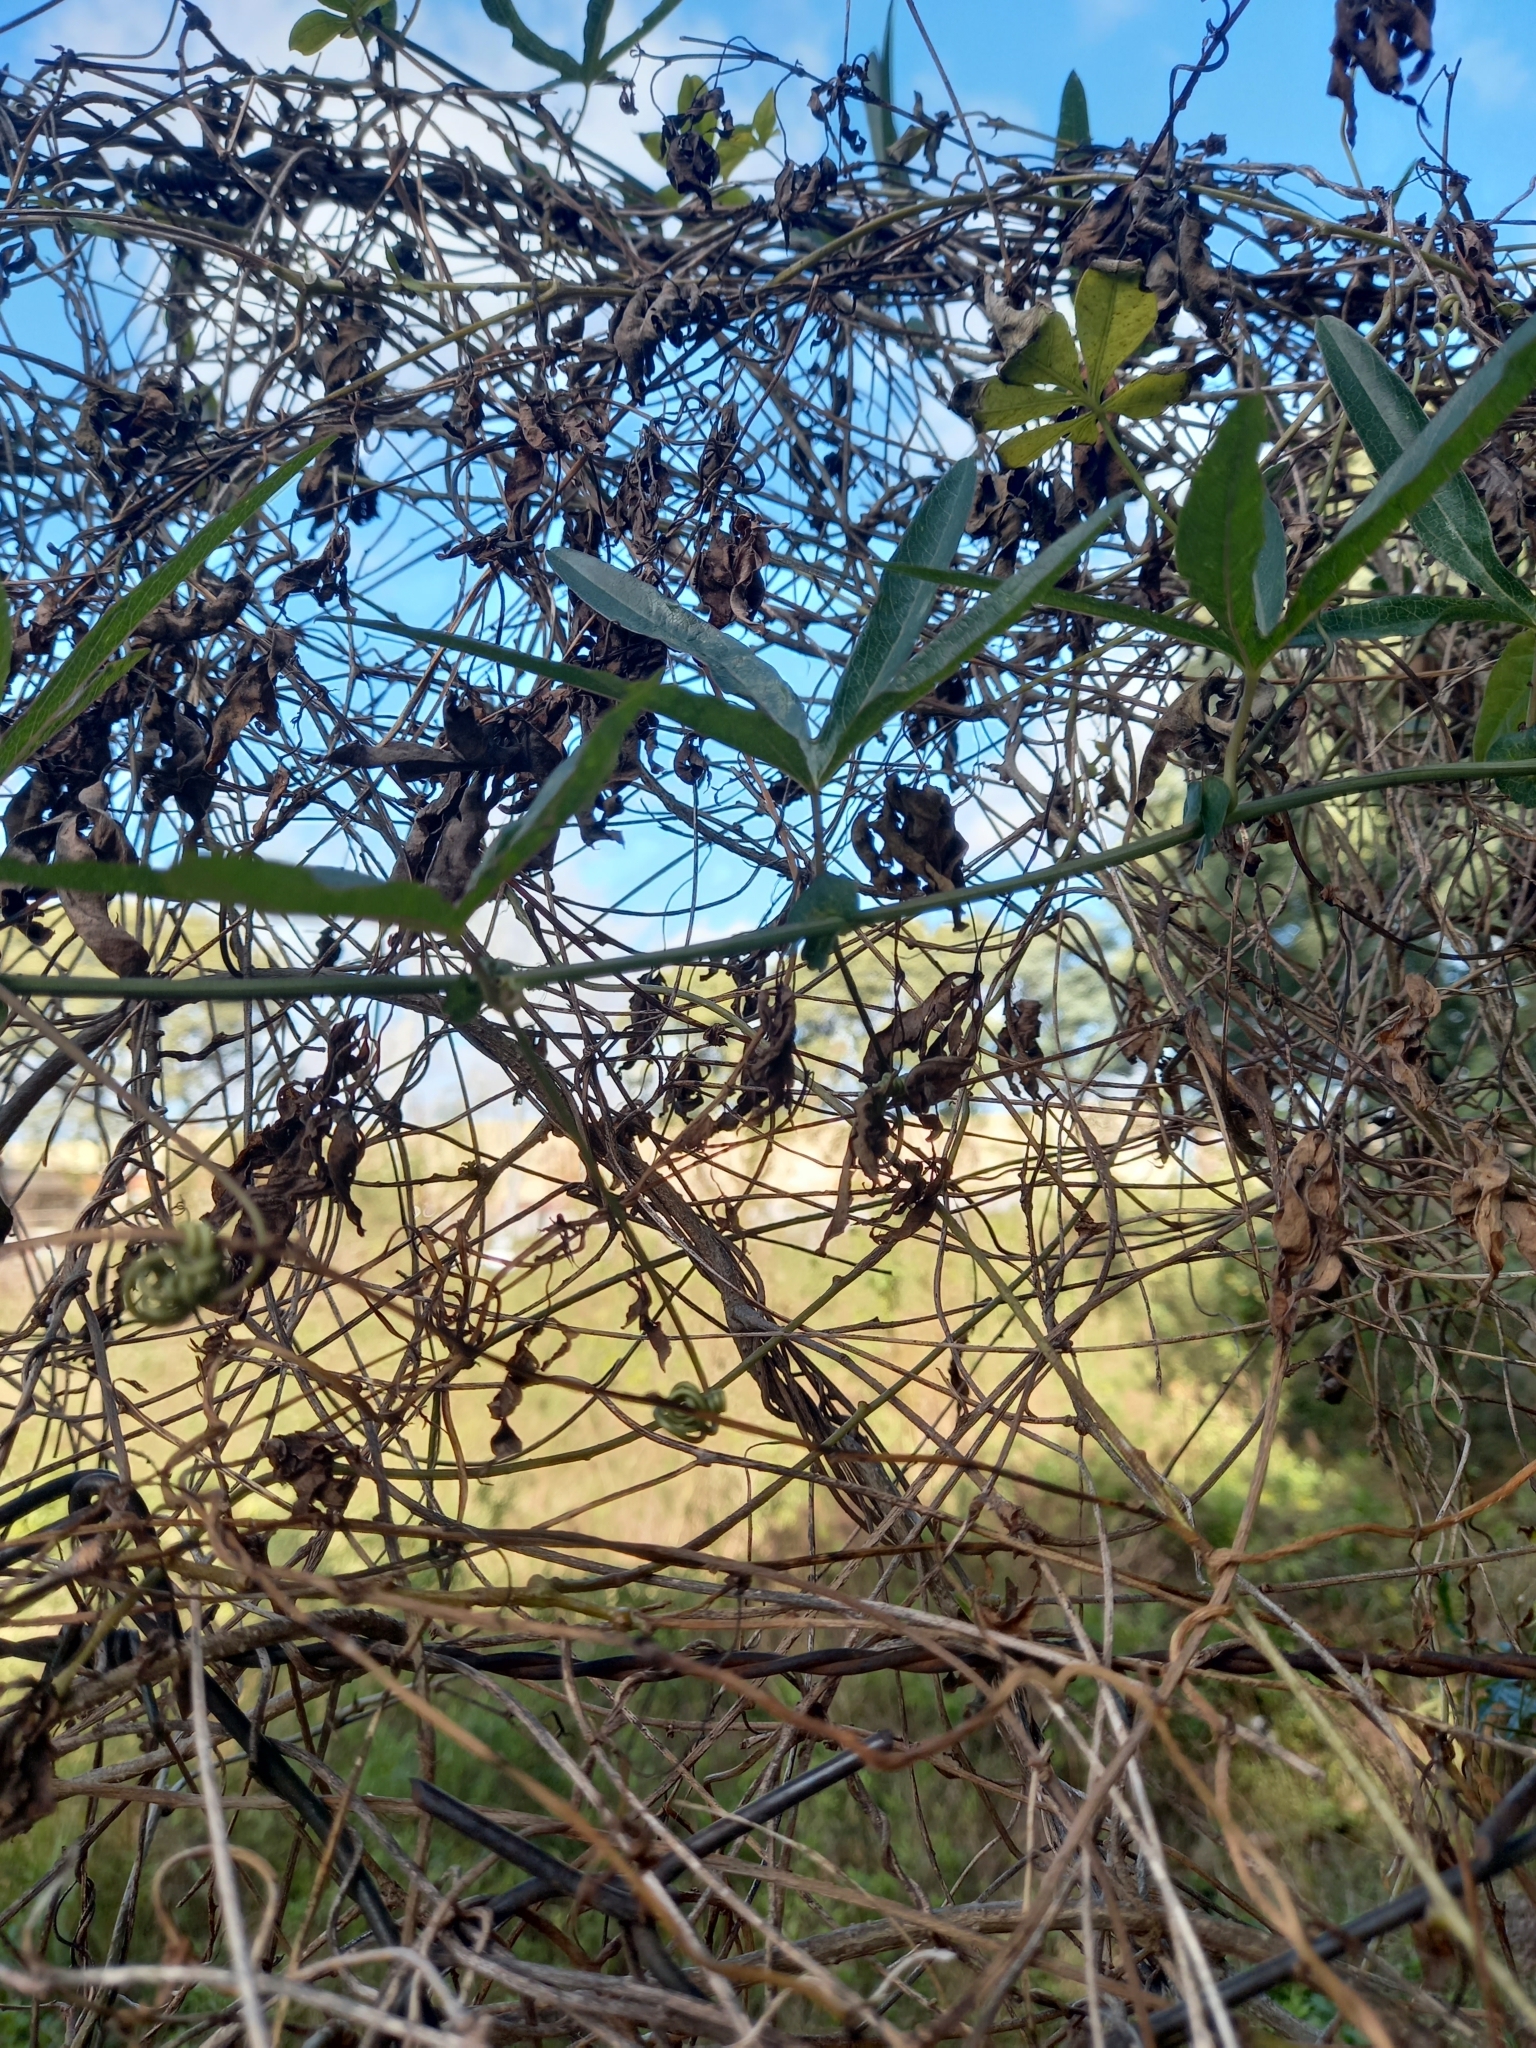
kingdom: Plantae
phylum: Tracheophyta
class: Magnoliopsida
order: Malpighiales
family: Passifloraceae
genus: Passiflora
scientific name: Passiflora caerulea
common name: Blue passionflower
